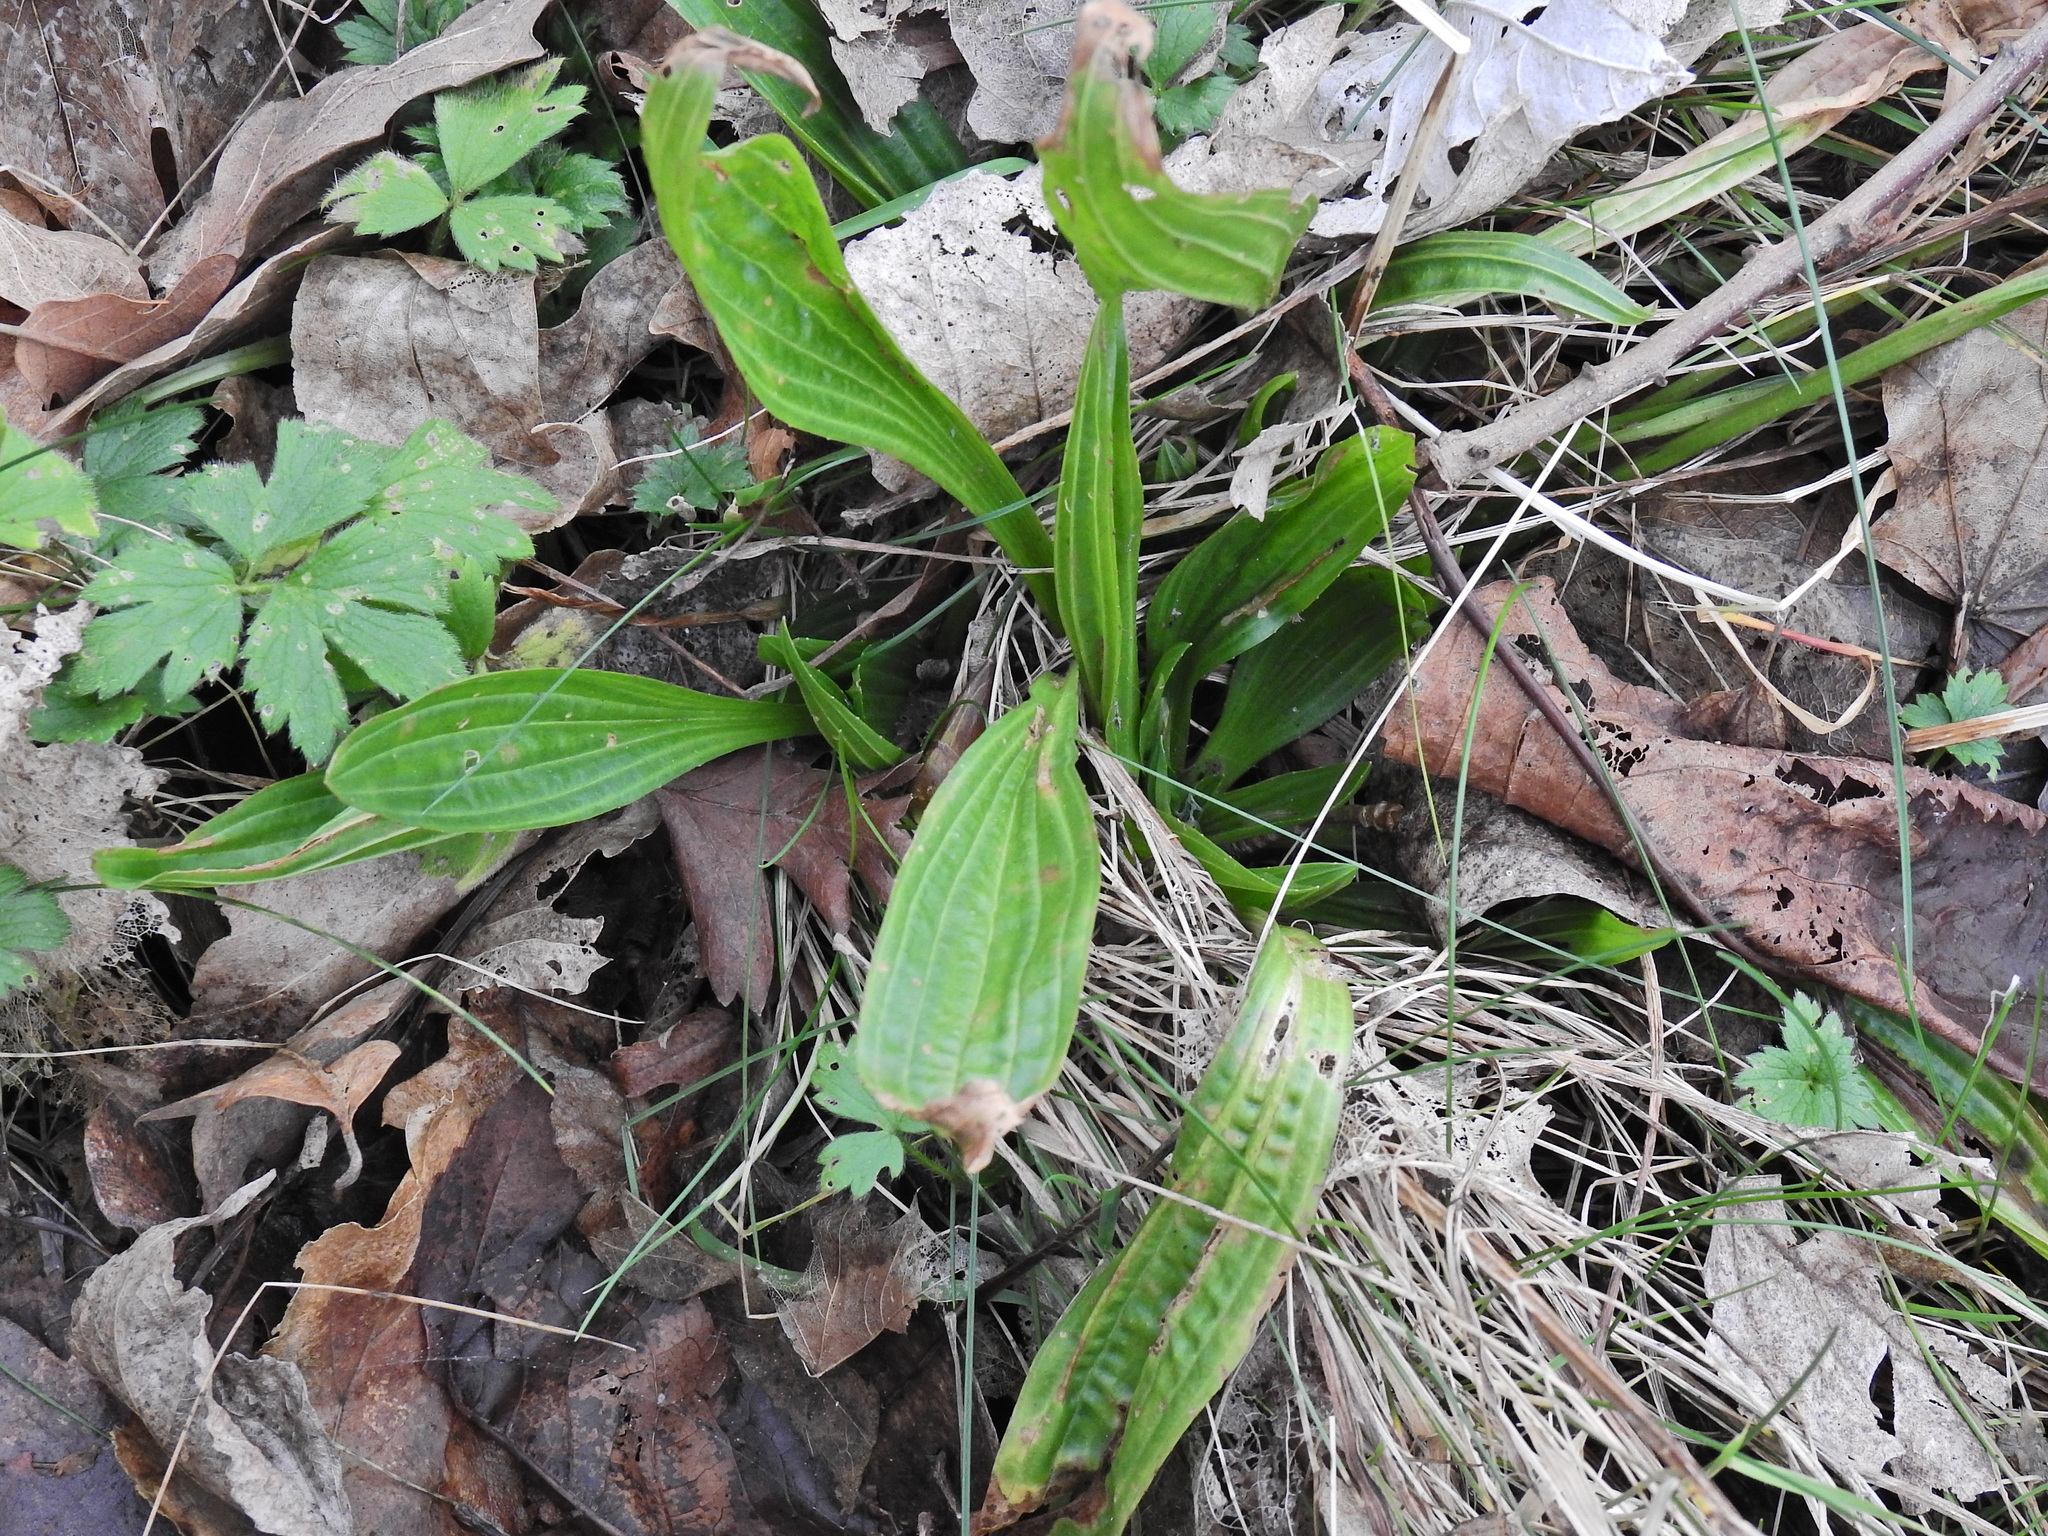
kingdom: Plantae
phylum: Tracheophyta
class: Magnoliopsida
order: Lamiales
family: Plantaginaceae
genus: Plantago
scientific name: Plantago lanceolata
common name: Ribwort plantain
